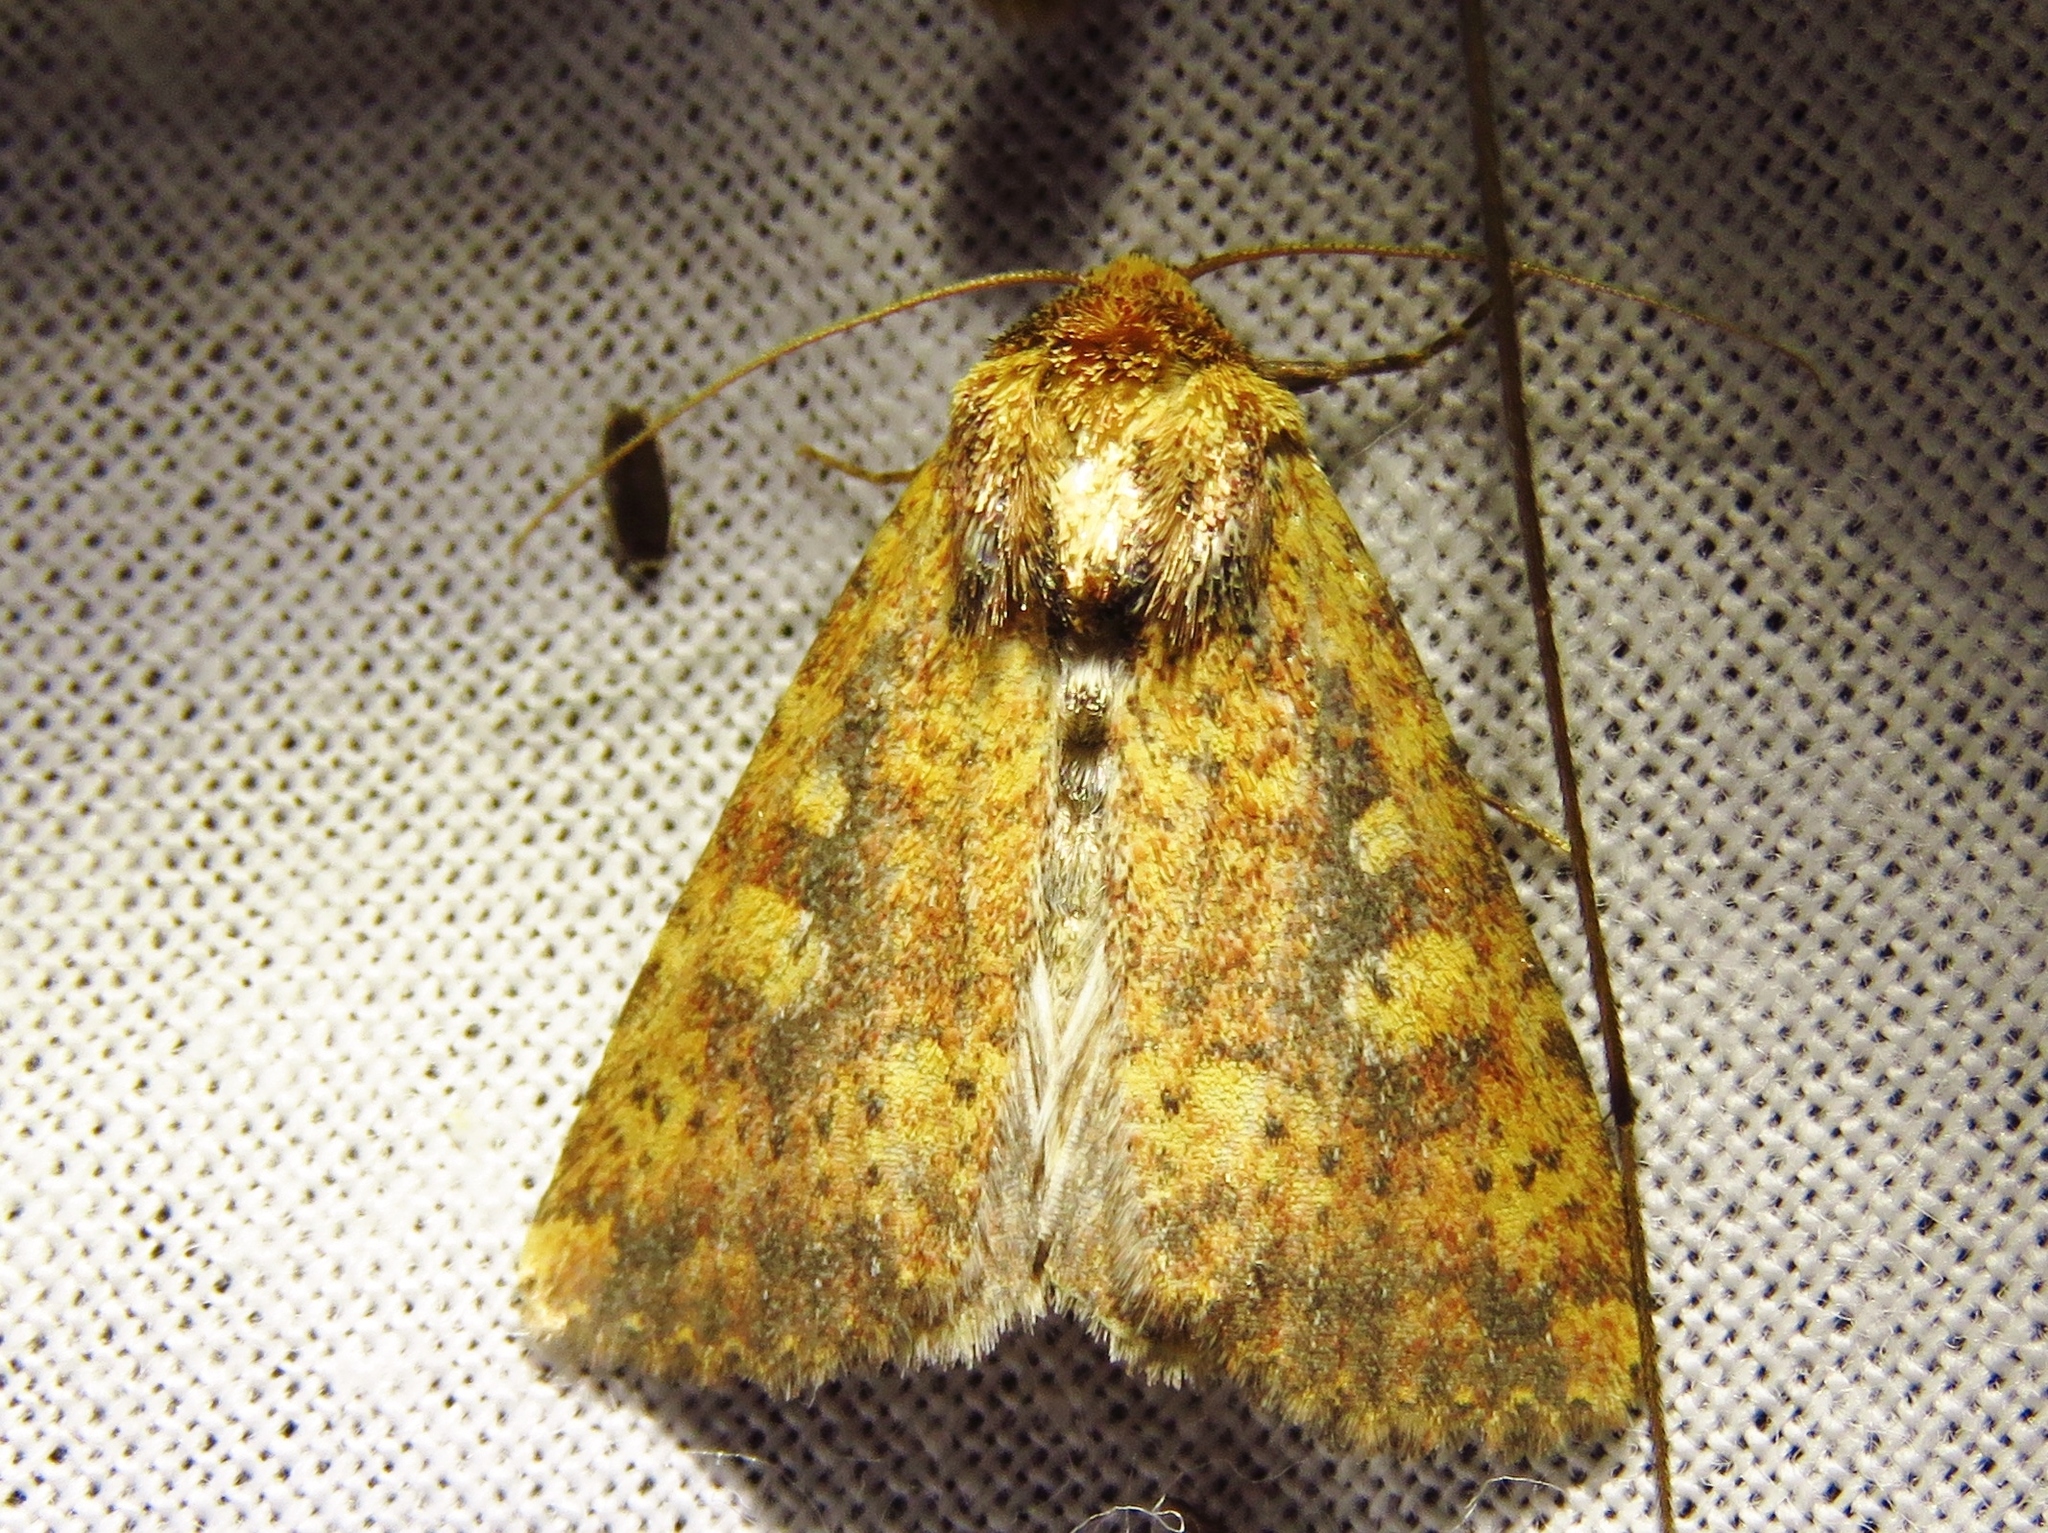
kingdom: Animalia
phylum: Arthropoda
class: Insecta
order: Lepidoptera
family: Noctuidae
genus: Perigea
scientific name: Perigea xanthioides
